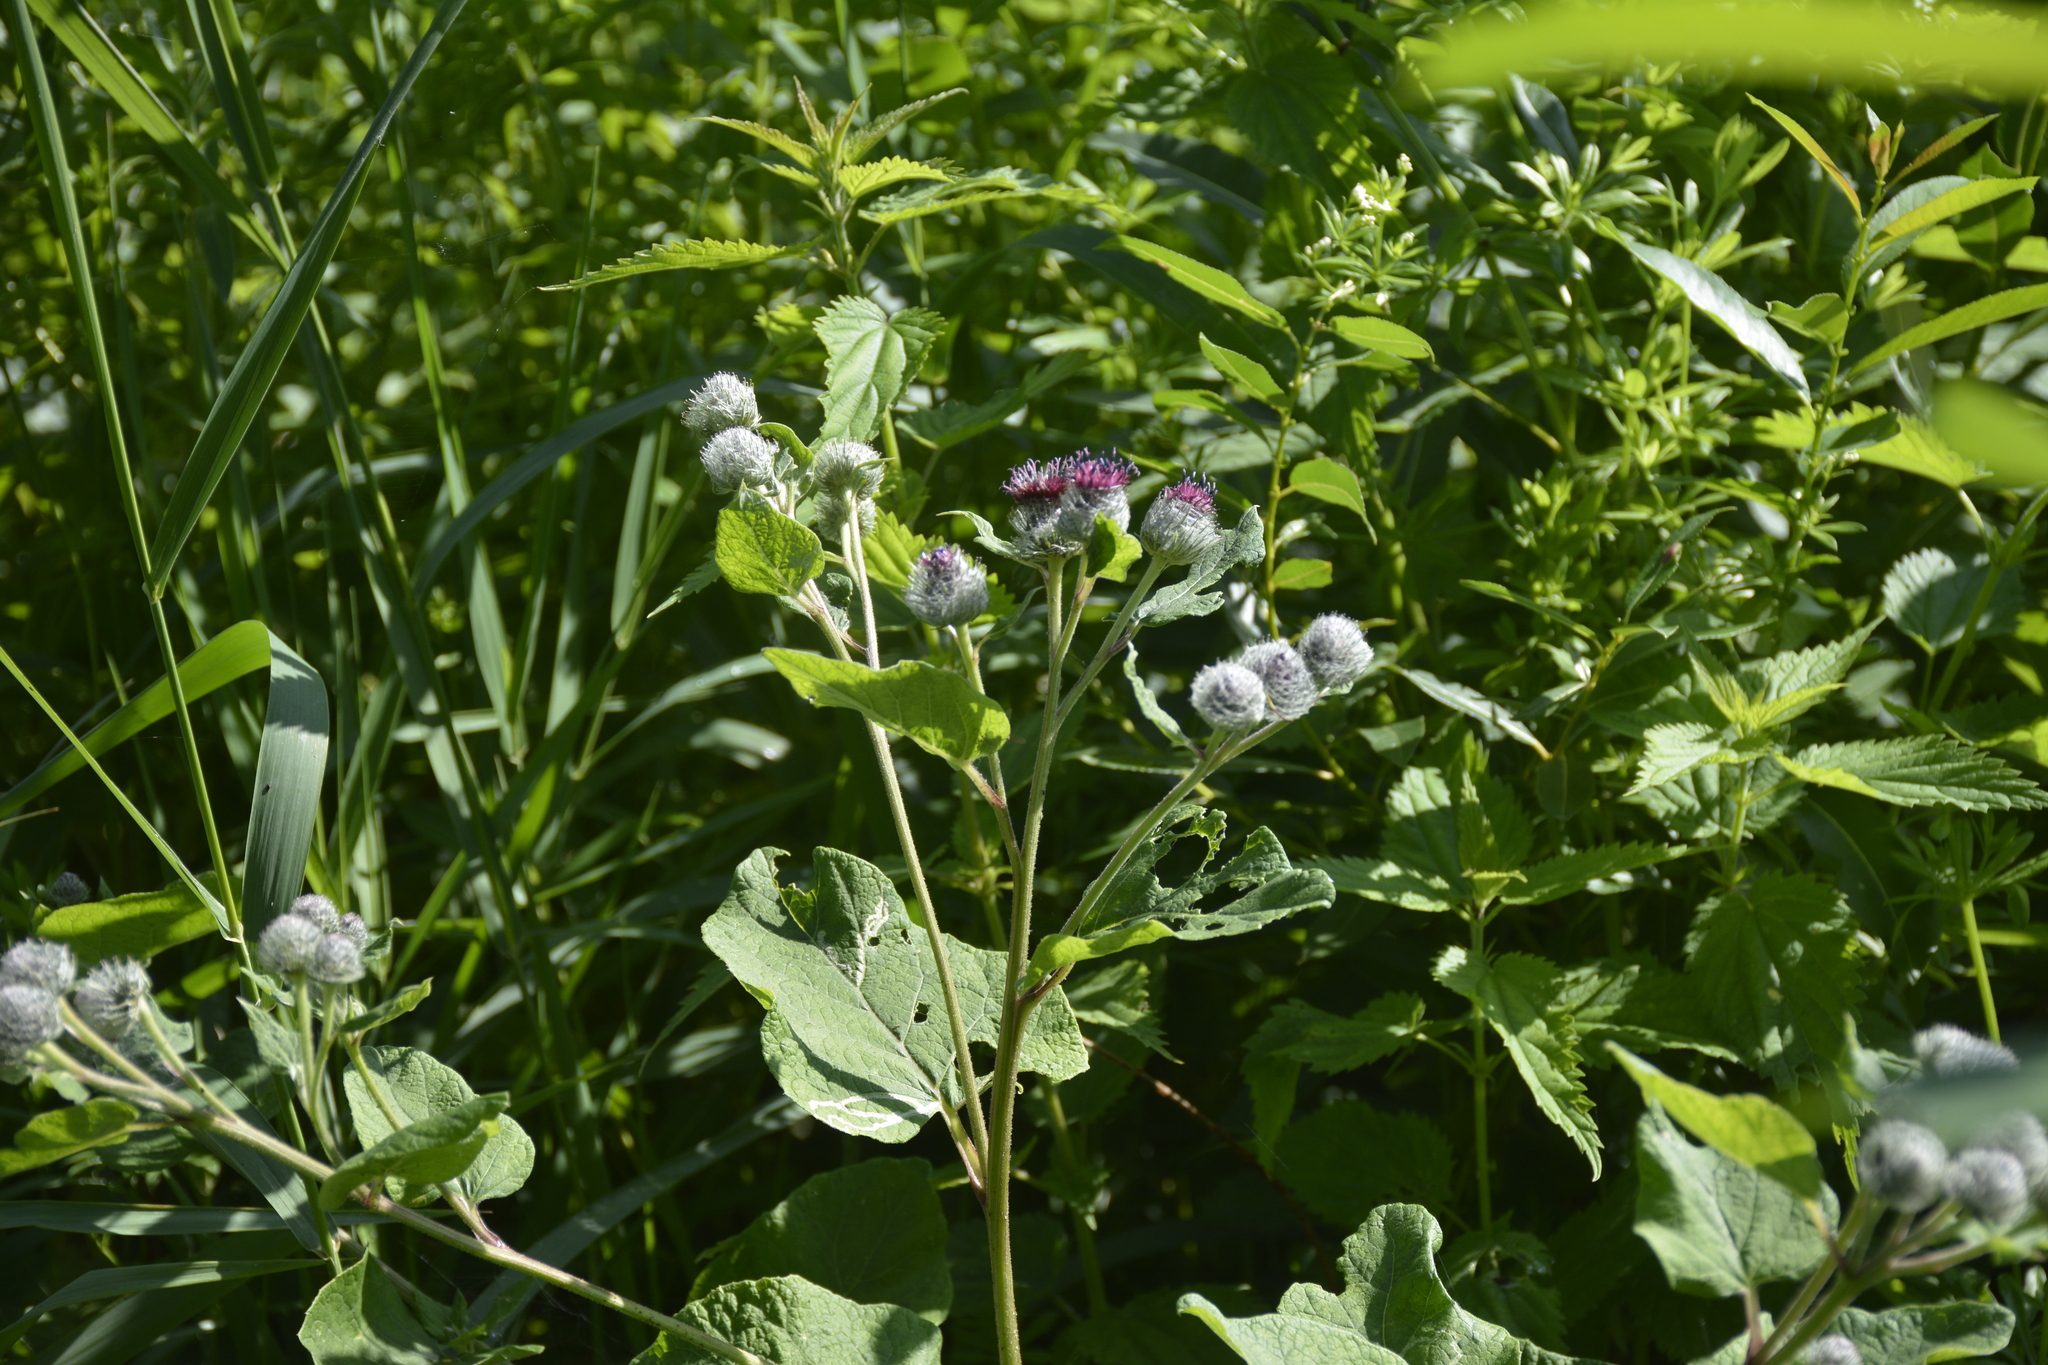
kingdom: Plantae
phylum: Tracheophyta
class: Magnoliopsida
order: Asterales
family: Asteraceae
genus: Arctium
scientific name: Arctium tomentosum
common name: Woolly burdock
